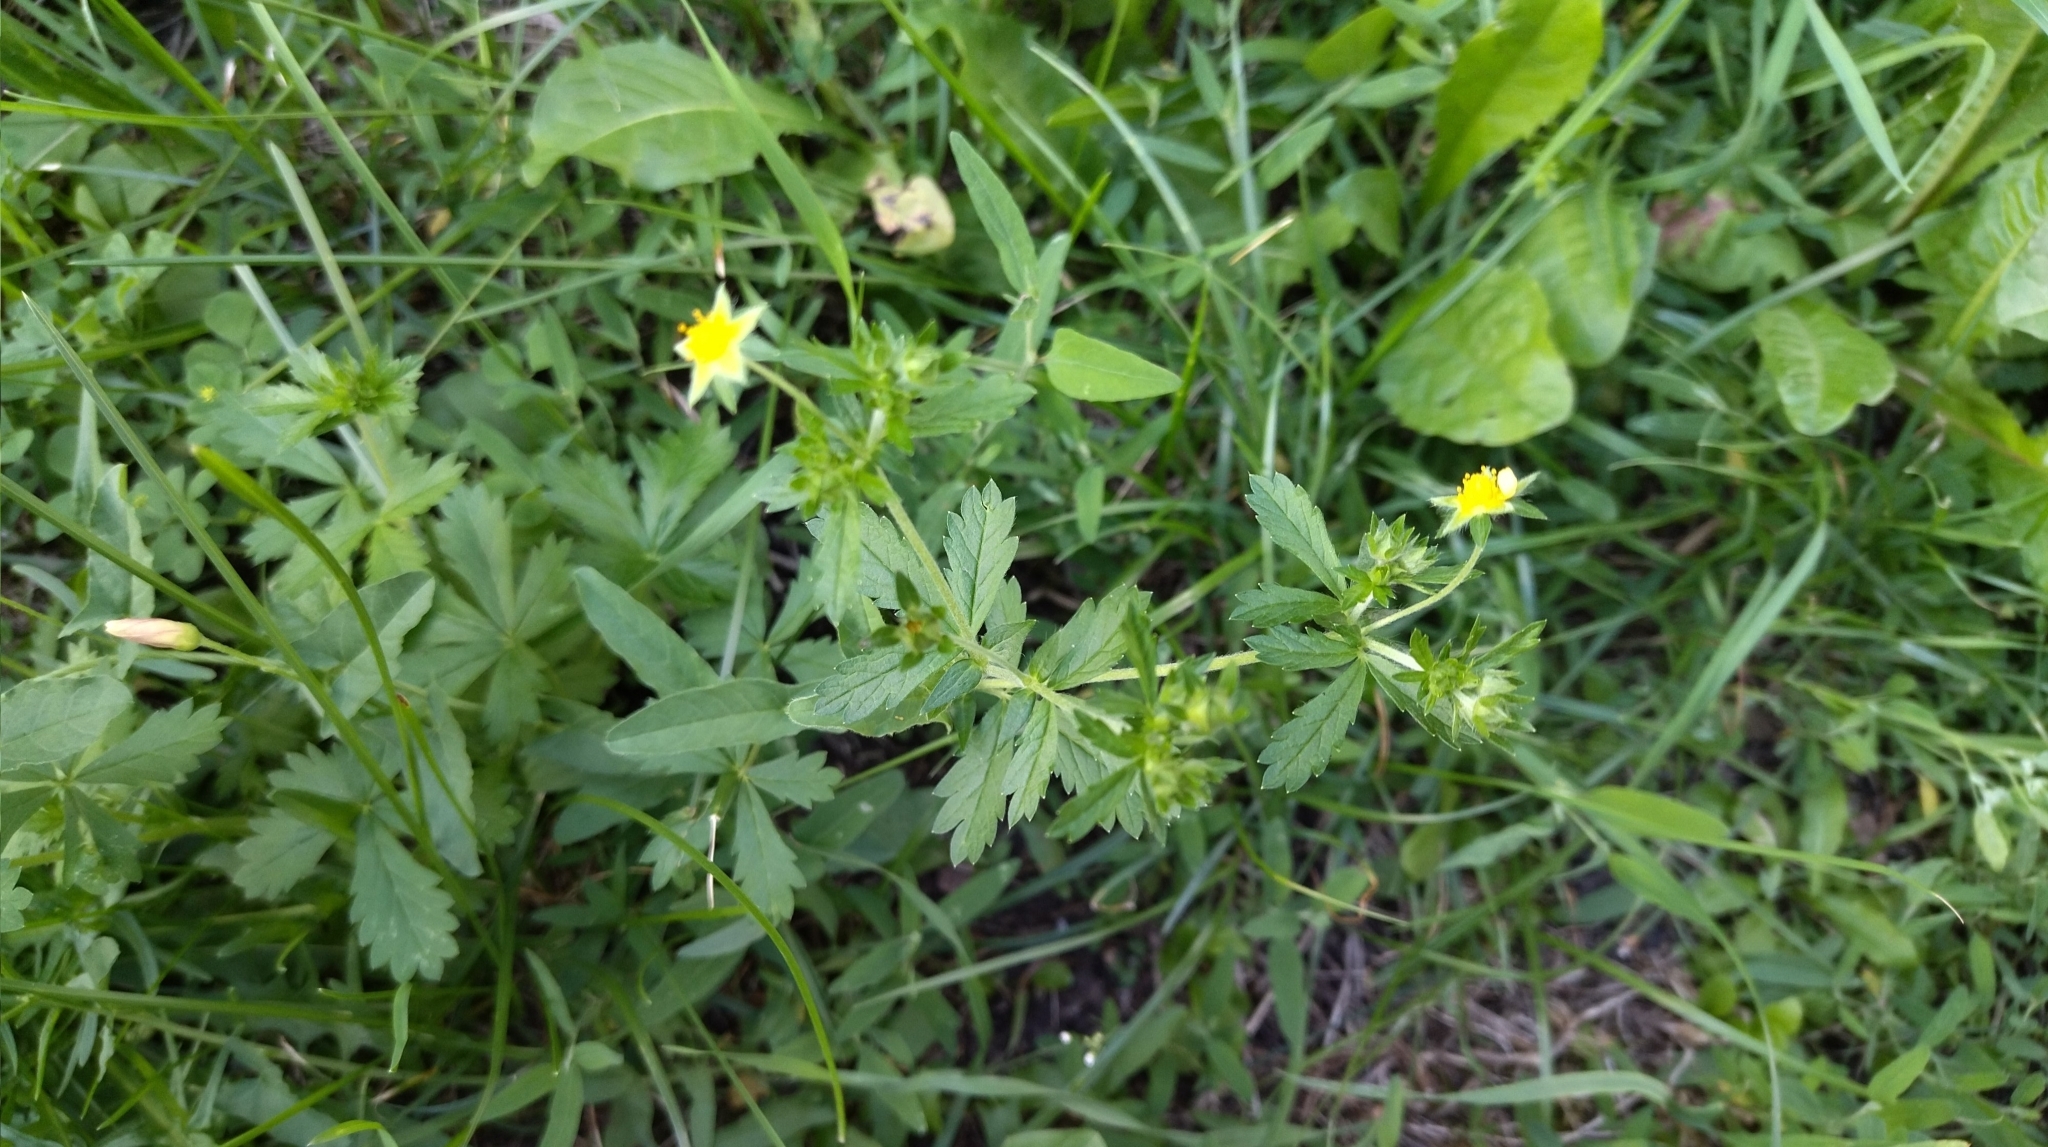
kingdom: Plantae
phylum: Tracheophyta
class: Magnoliopsida
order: Rosales
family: Rosaceae
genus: Potentilla
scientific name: Potentilla intermedia
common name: Downy cinquefoil
